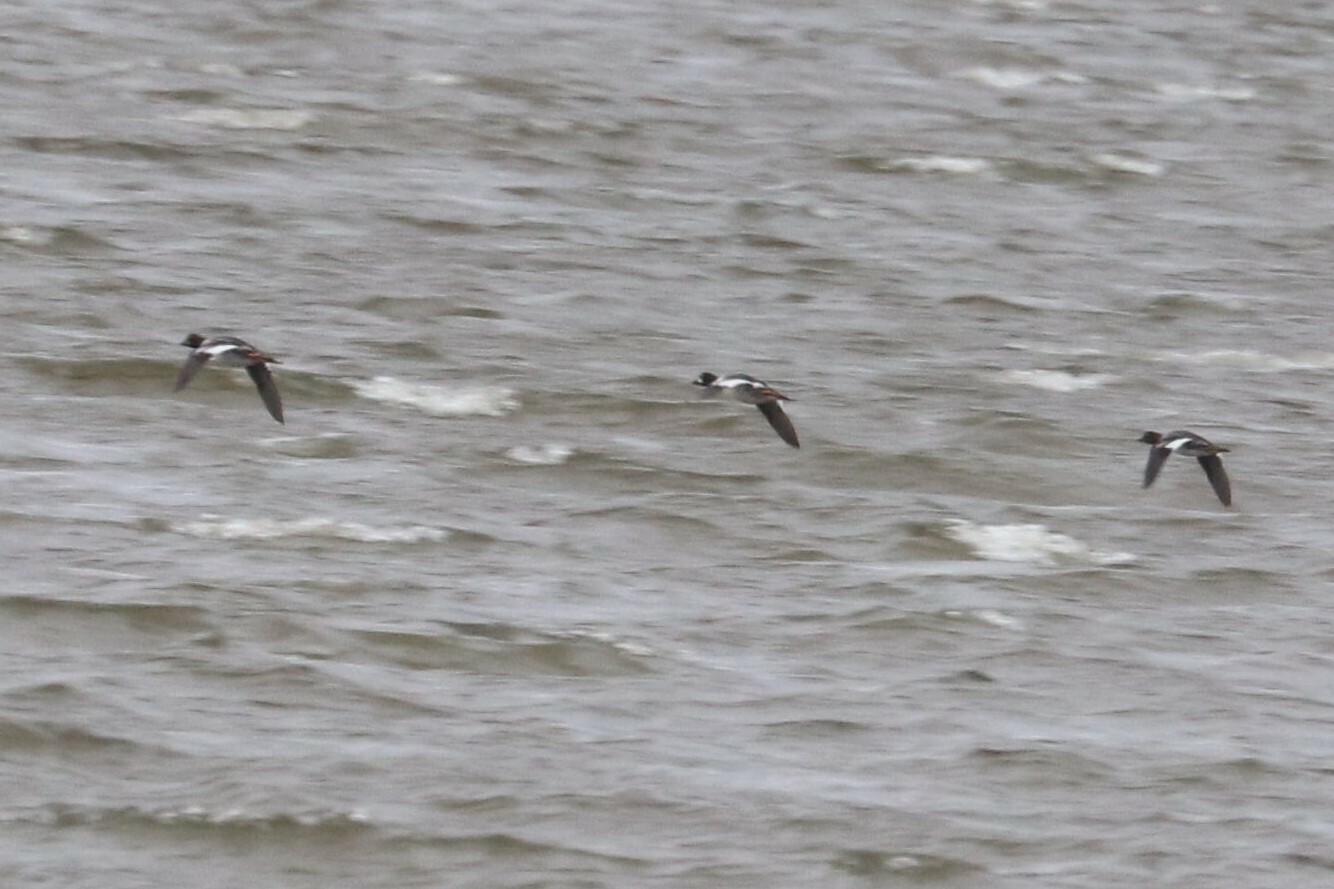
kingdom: Animalia
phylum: Chordata
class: Aves
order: Anseriformes
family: Anatidae
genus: Bucephala
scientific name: Bucephala clangula
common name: Common goldeneye
